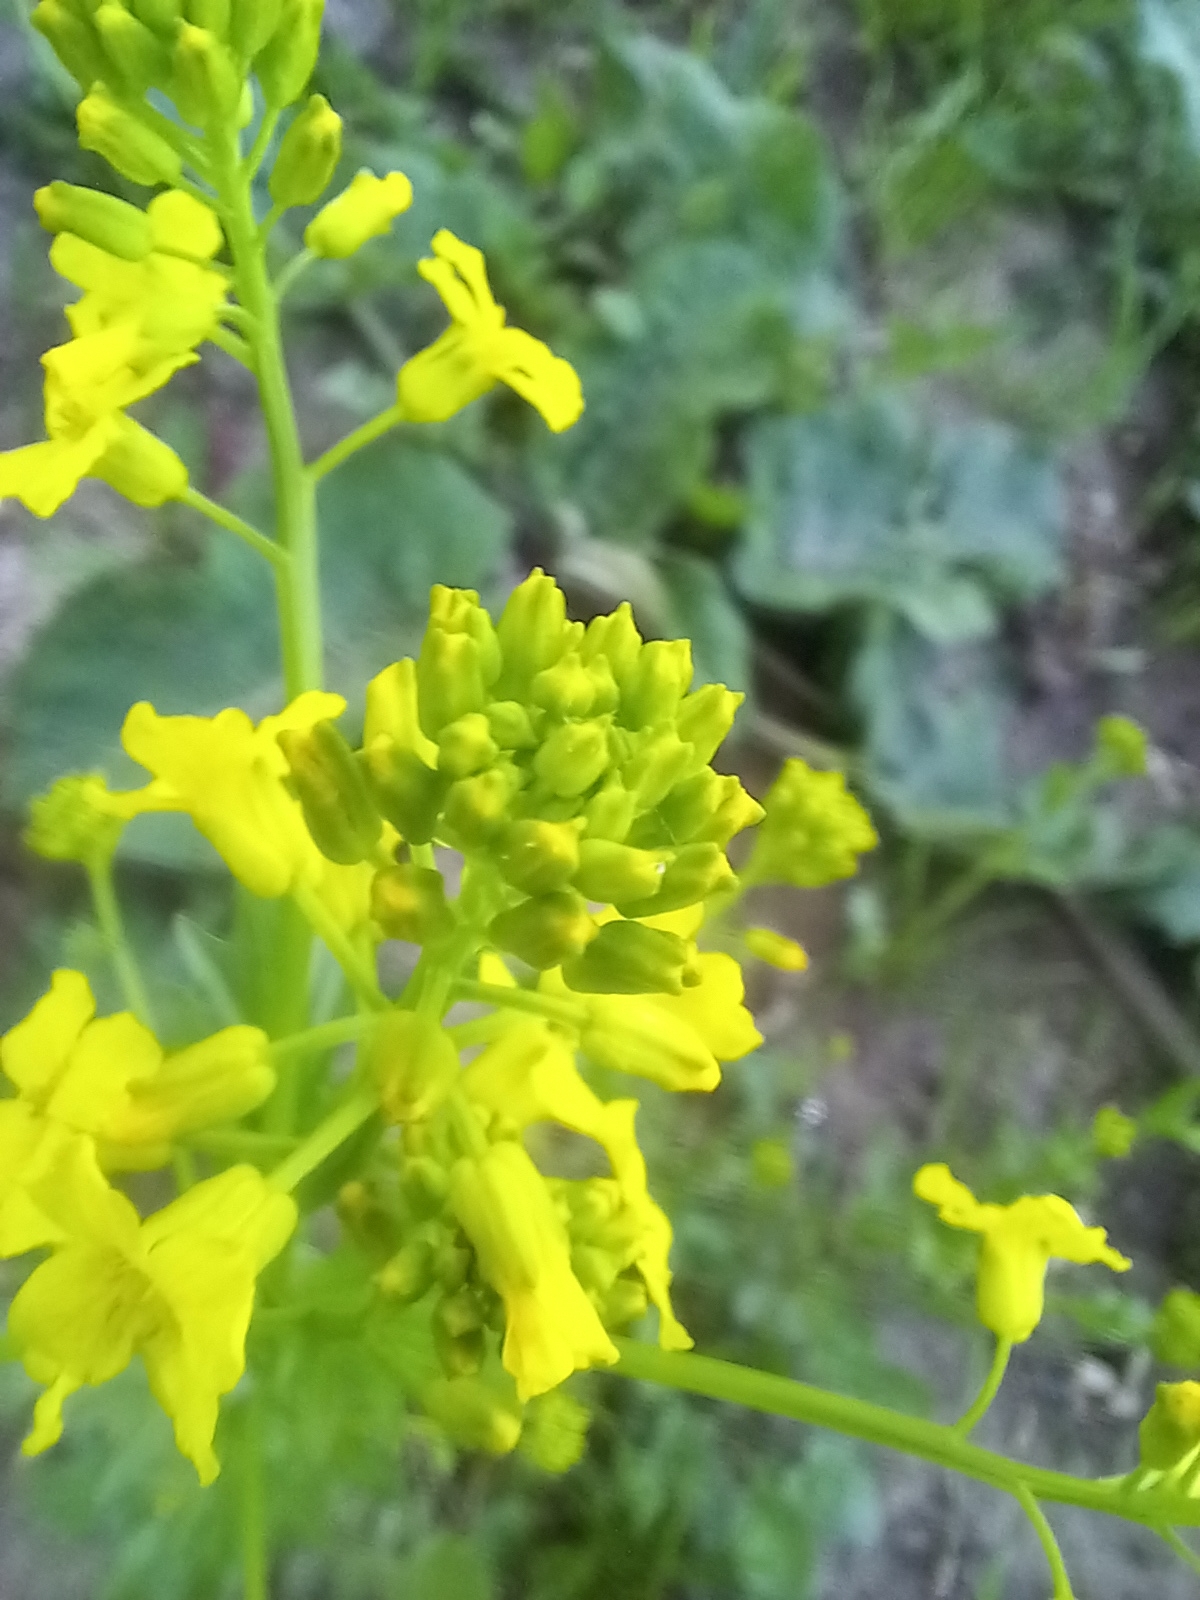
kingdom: Plantae
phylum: Tracheophyta
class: Magnoliopsida
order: Brassicales
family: Brassicaceae
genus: Barbarea
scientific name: Barbarea vulgaris
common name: Cressy-greens
